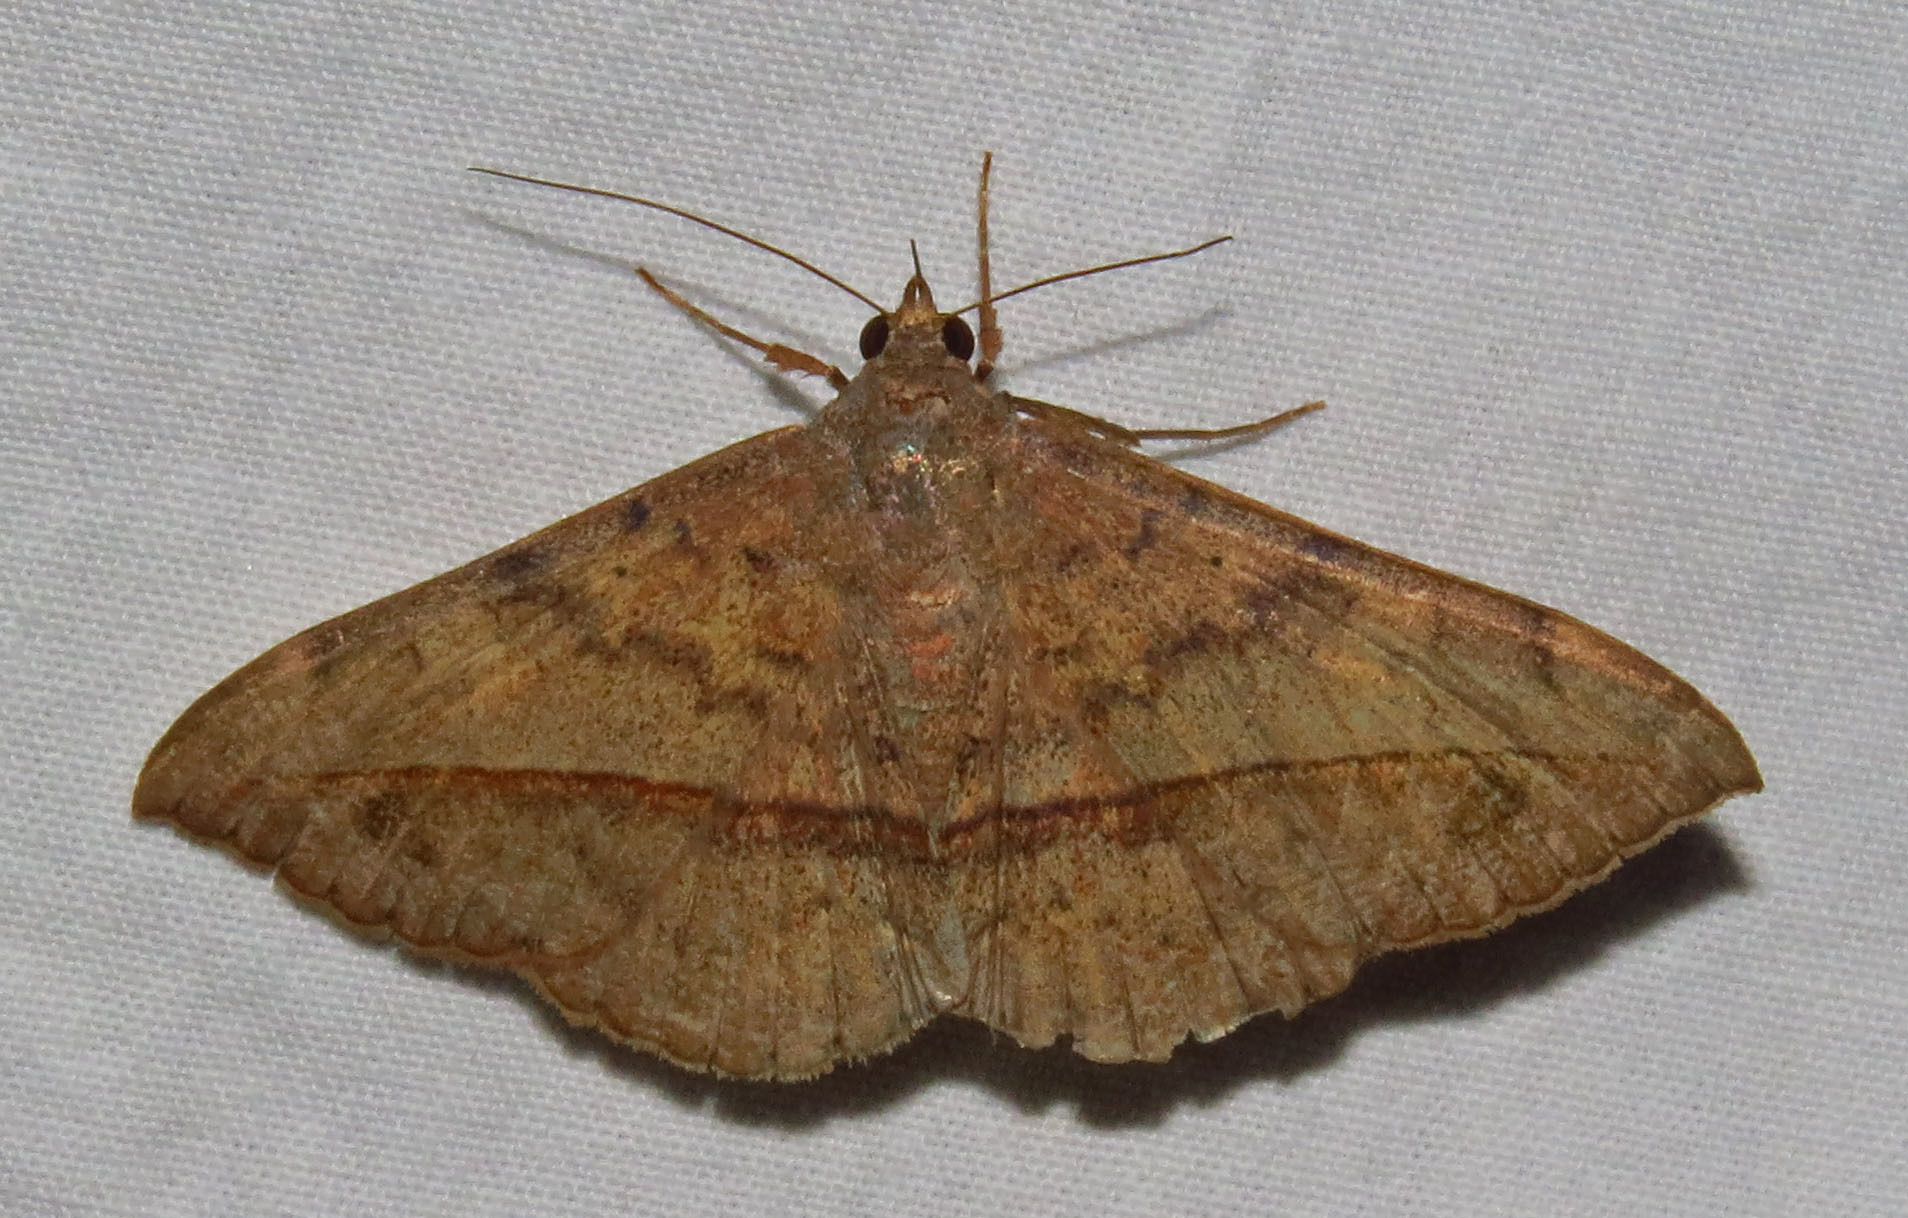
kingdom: Animalia
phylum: Arthropoda
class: Insecta
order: Lepidoptera
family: Erebidae
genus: Anticarsia
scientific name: Anticarsia gemmatalis
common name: Cutworm moth
